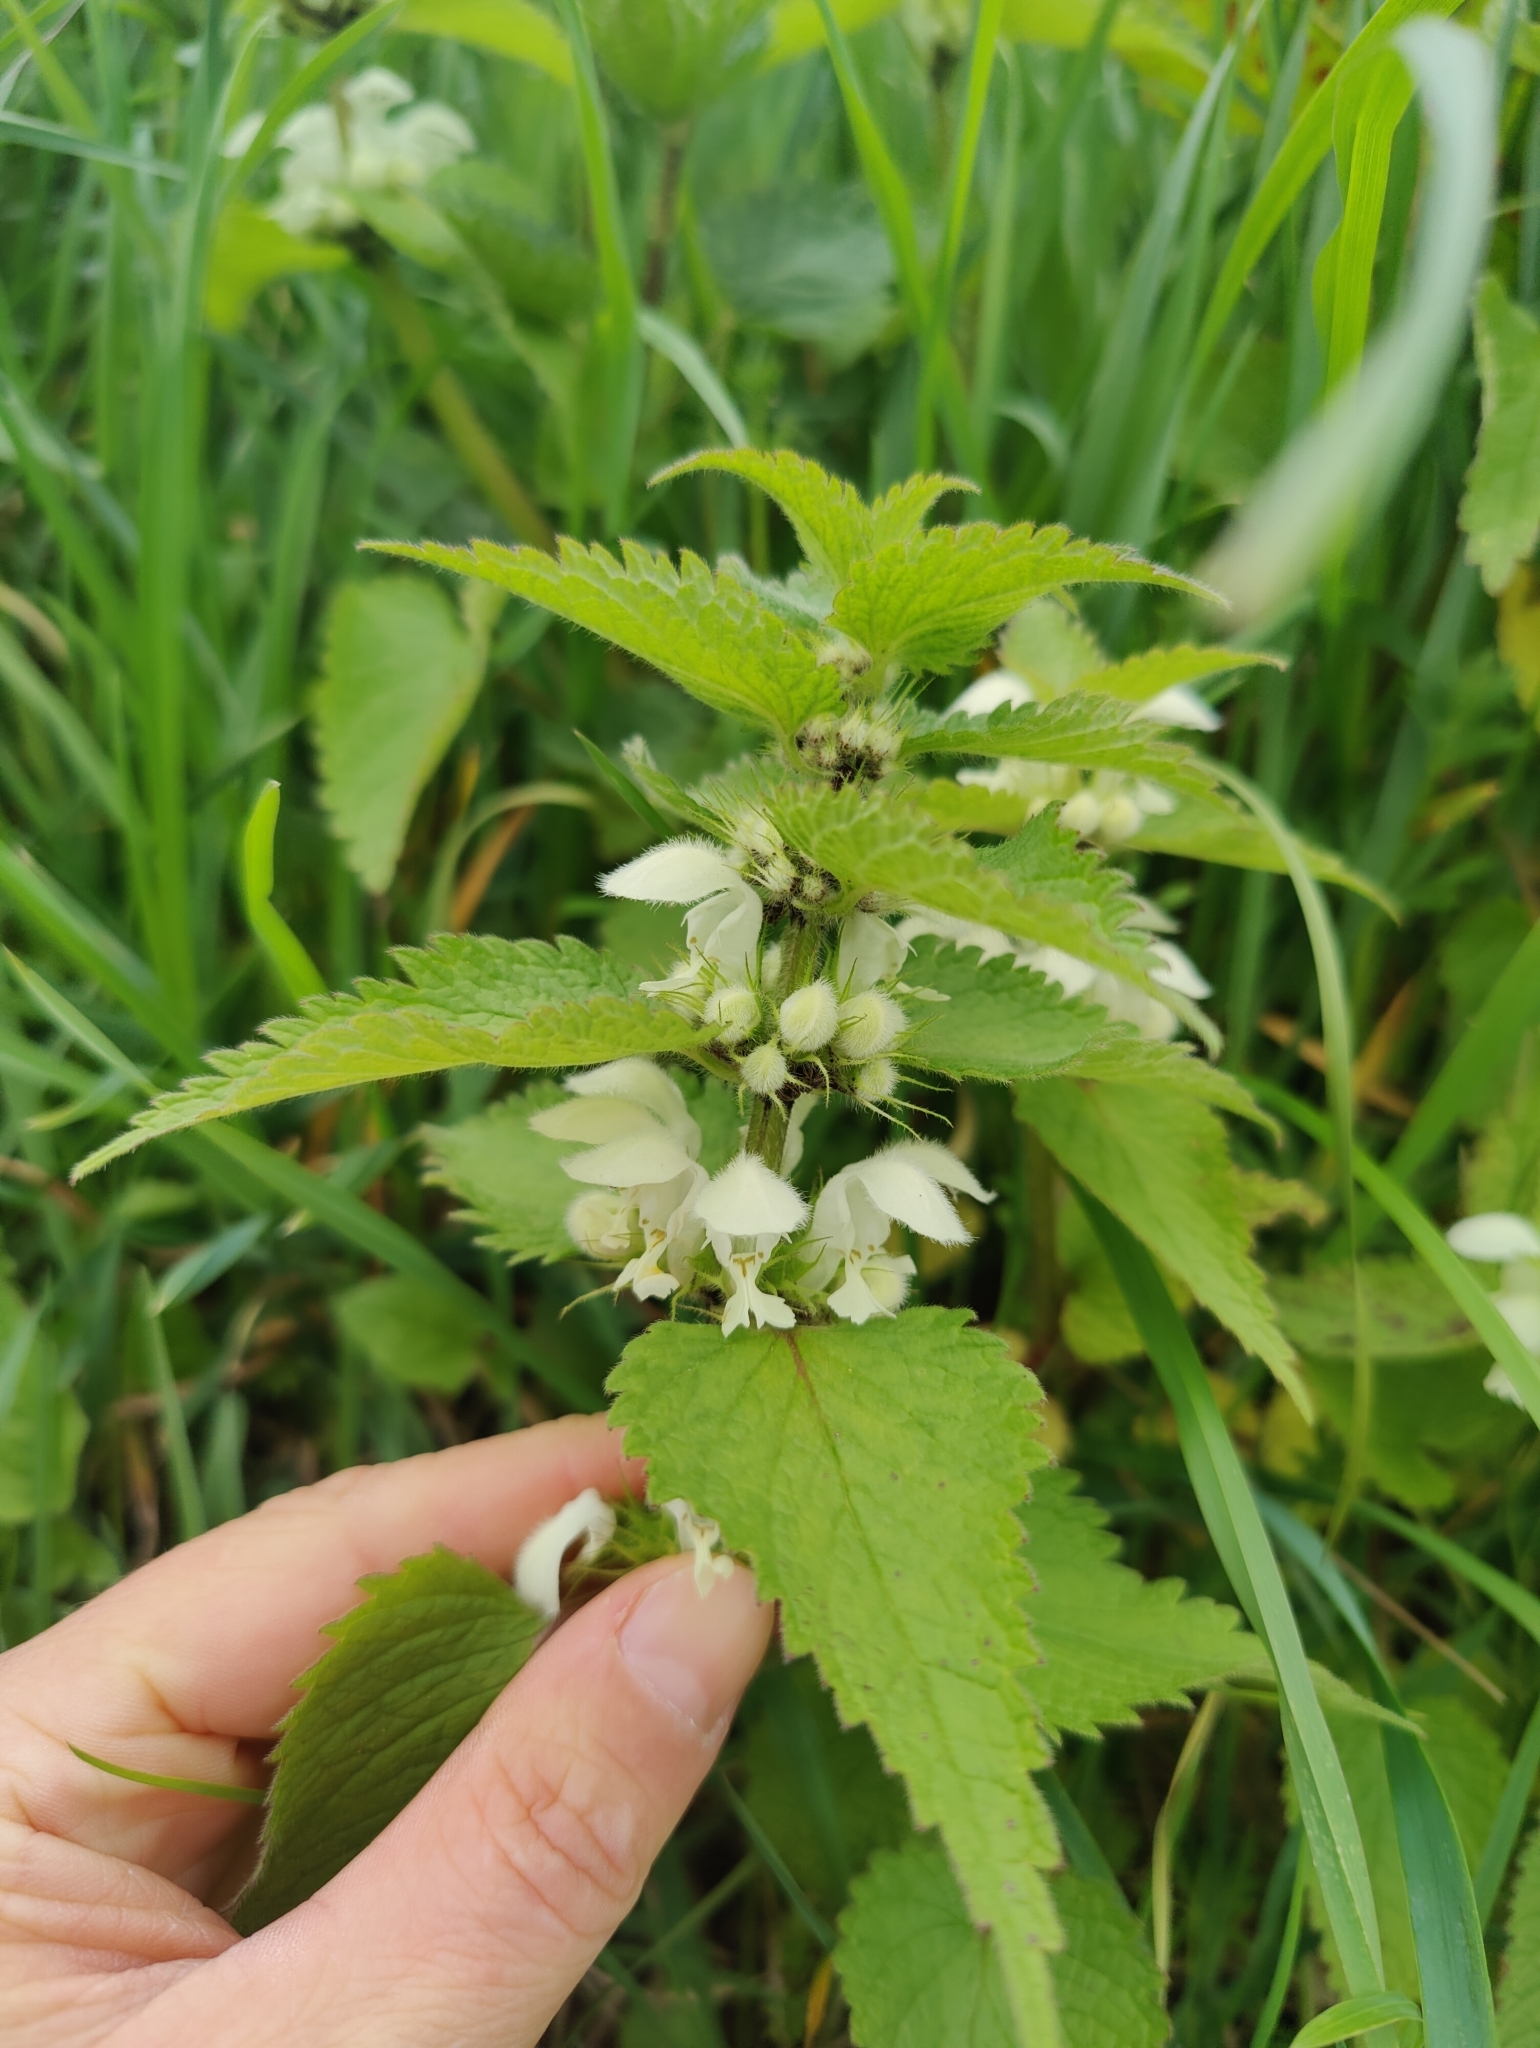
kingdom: Plantae
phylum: Tracheophyta
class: Magnoliopsida
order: Lamiales
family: Lamiaceae
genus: Lamium
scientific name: Lamium album
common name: White dead-nettle
